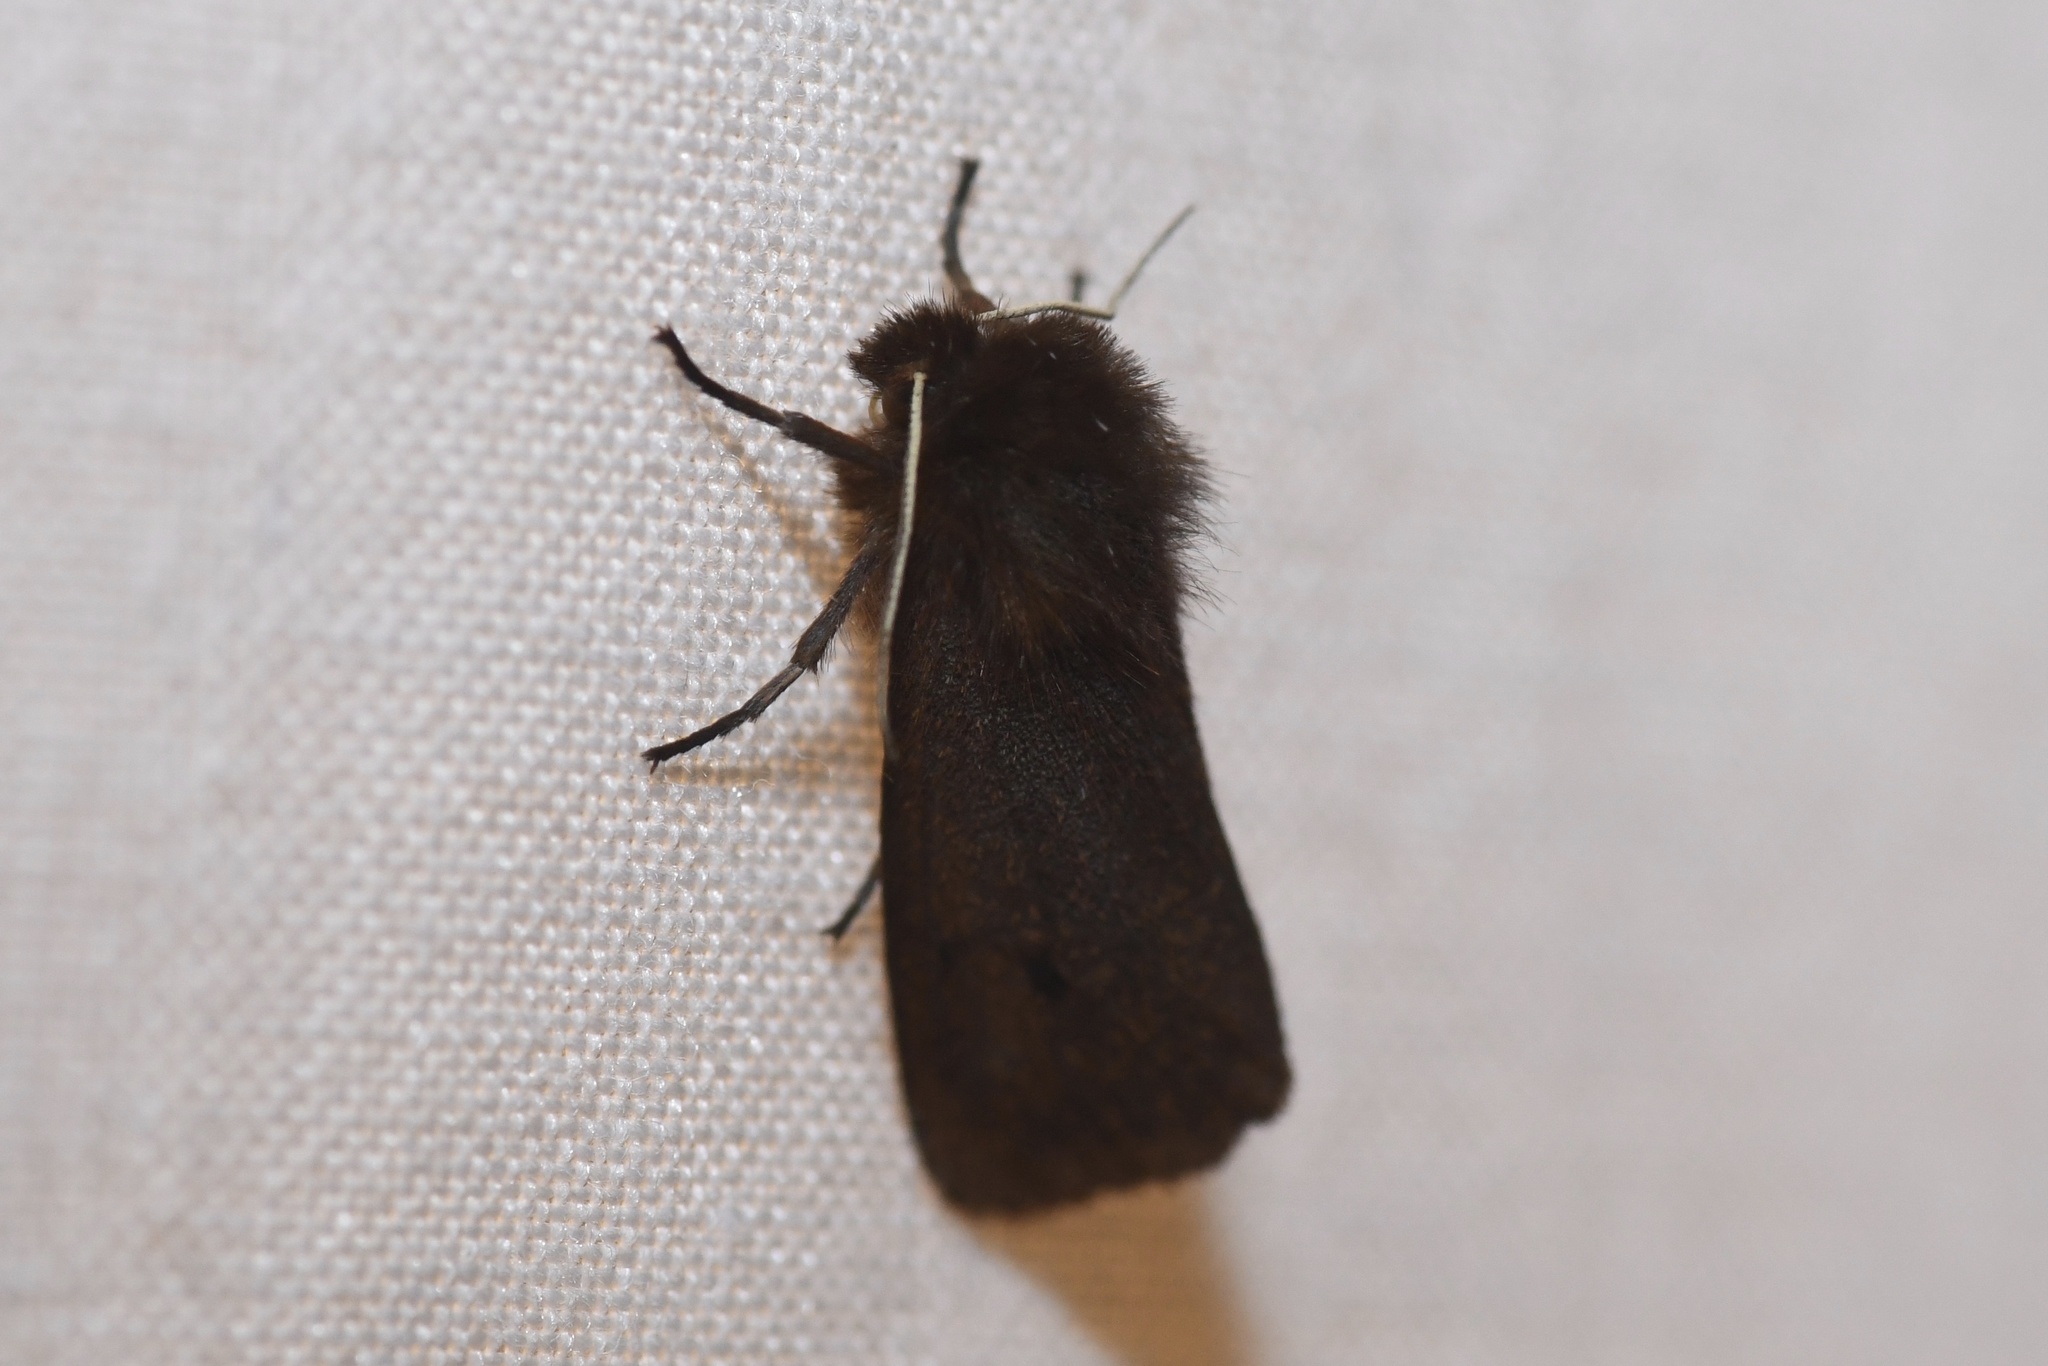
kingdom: Animalia
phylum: Arthropoda
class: Insecta
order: Lepidoptera
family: Erebidae
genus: Phragmatobia
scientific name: Phragmatobia fuliginosa
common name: Ruby tiger
